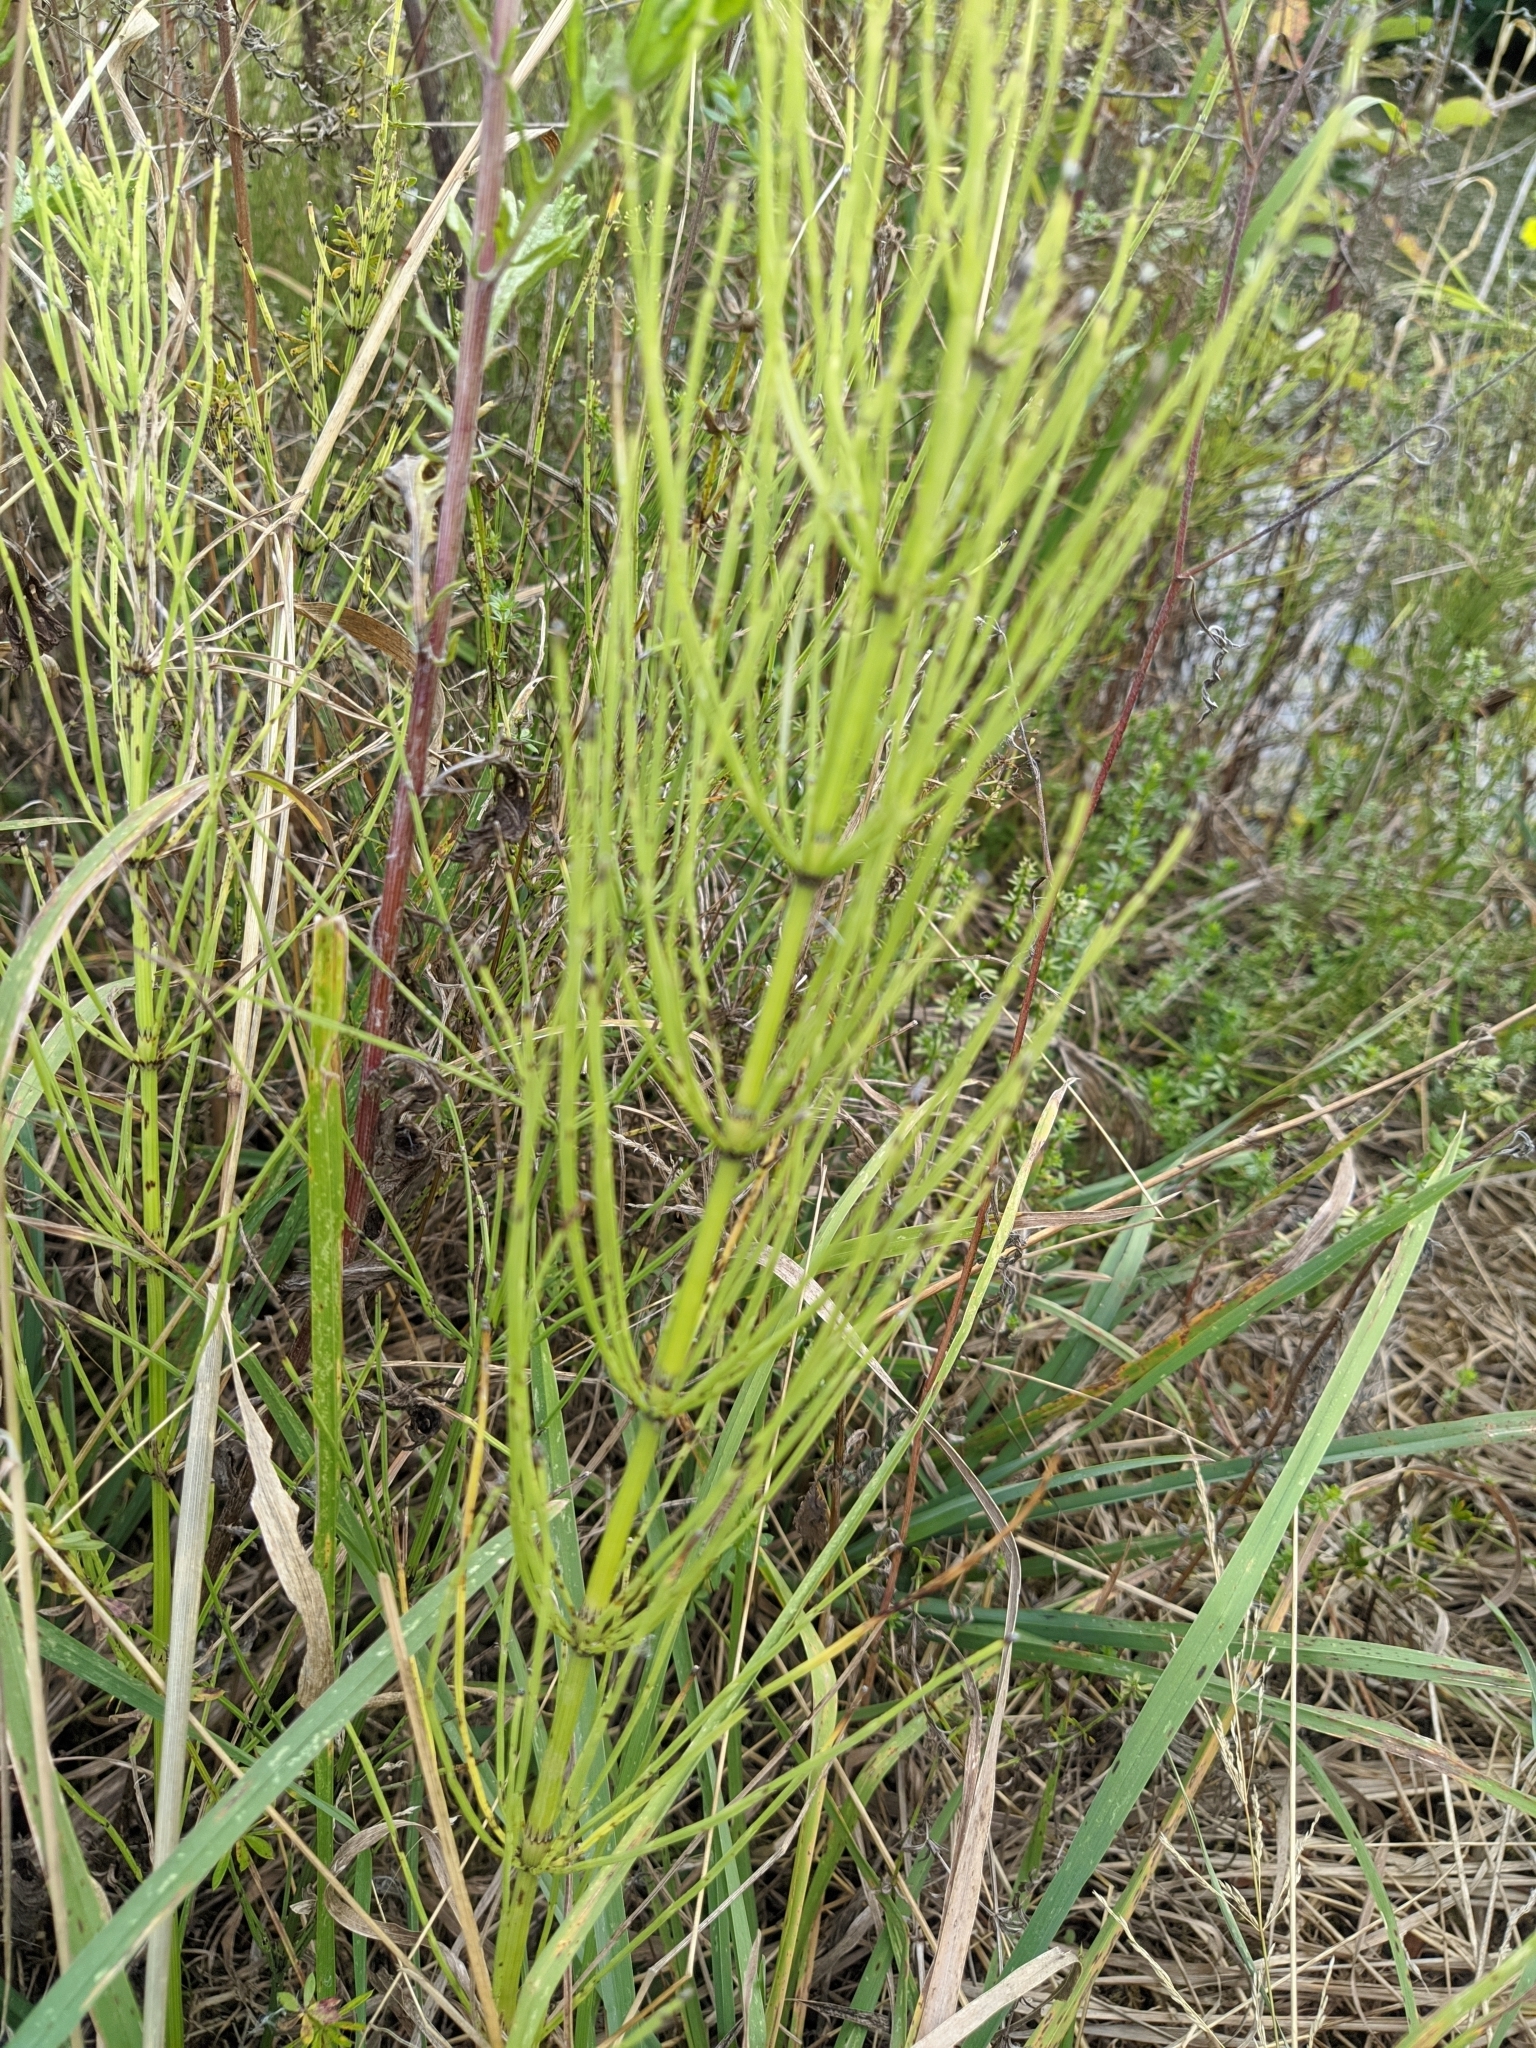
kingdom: Plantae
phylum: Tracheophyta
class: Polypodiopsida
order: Equisetales
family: Equisetaceae
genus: Equisetum
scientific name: Equisetum arvense
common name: Field horsetail
